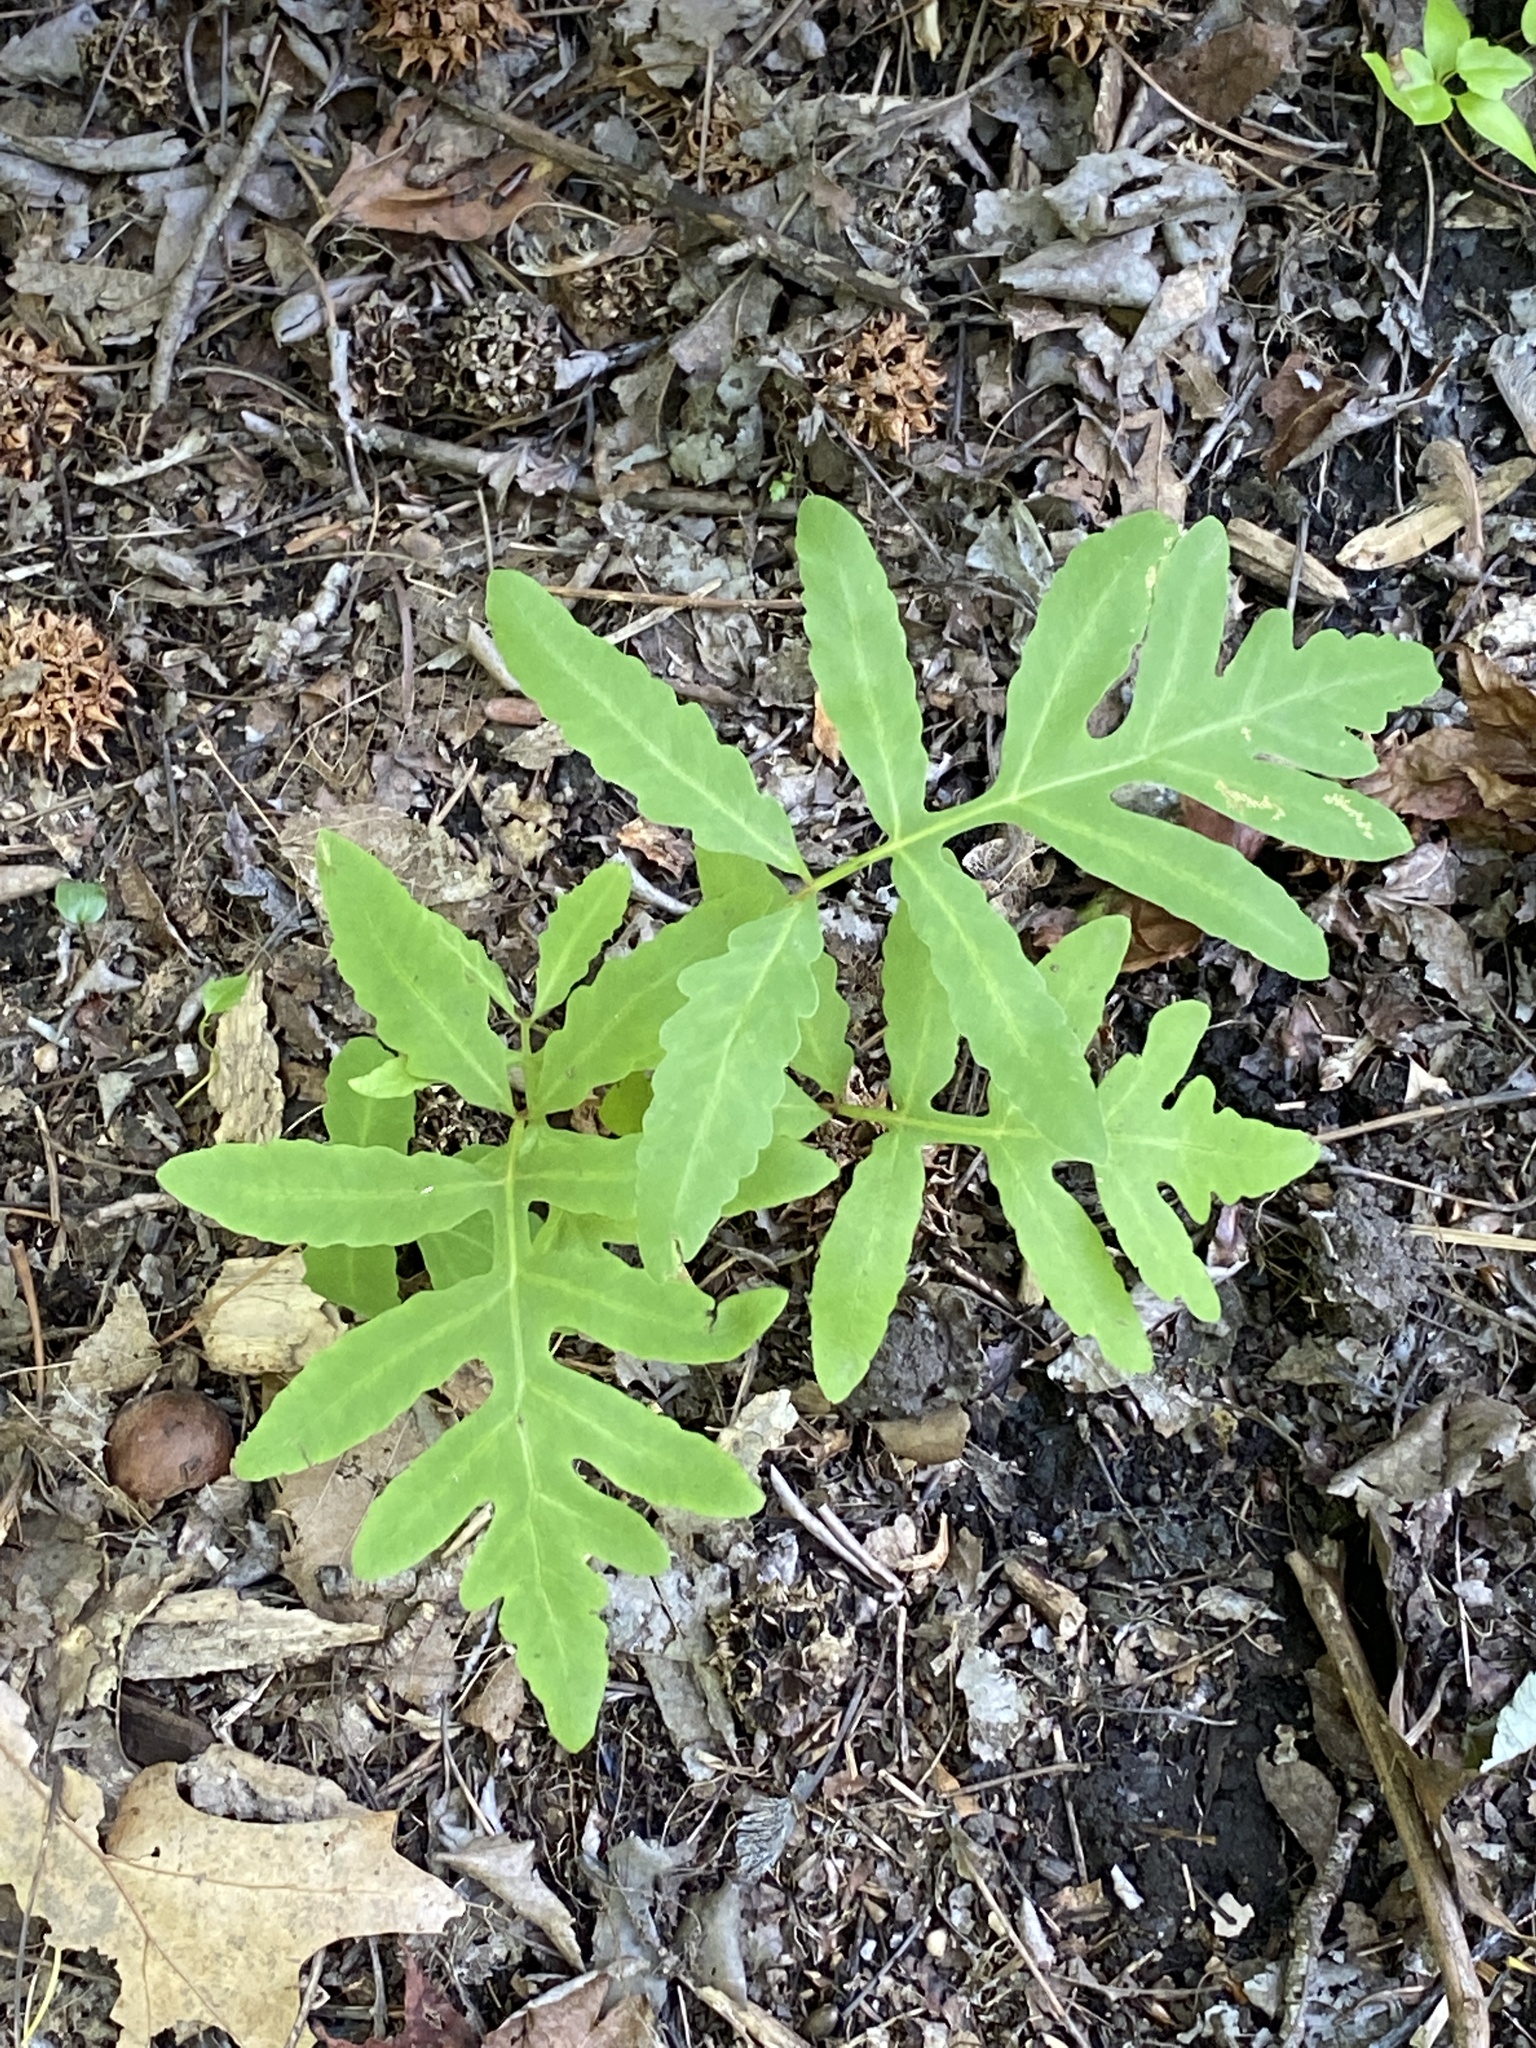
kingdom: Plantae
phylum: Tracheophyta
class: Polypodiopsida
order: Polypodiales
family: Onocleaceae
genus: Onoclea
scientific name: Onoclea sensibilis
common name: Sensitive fern
